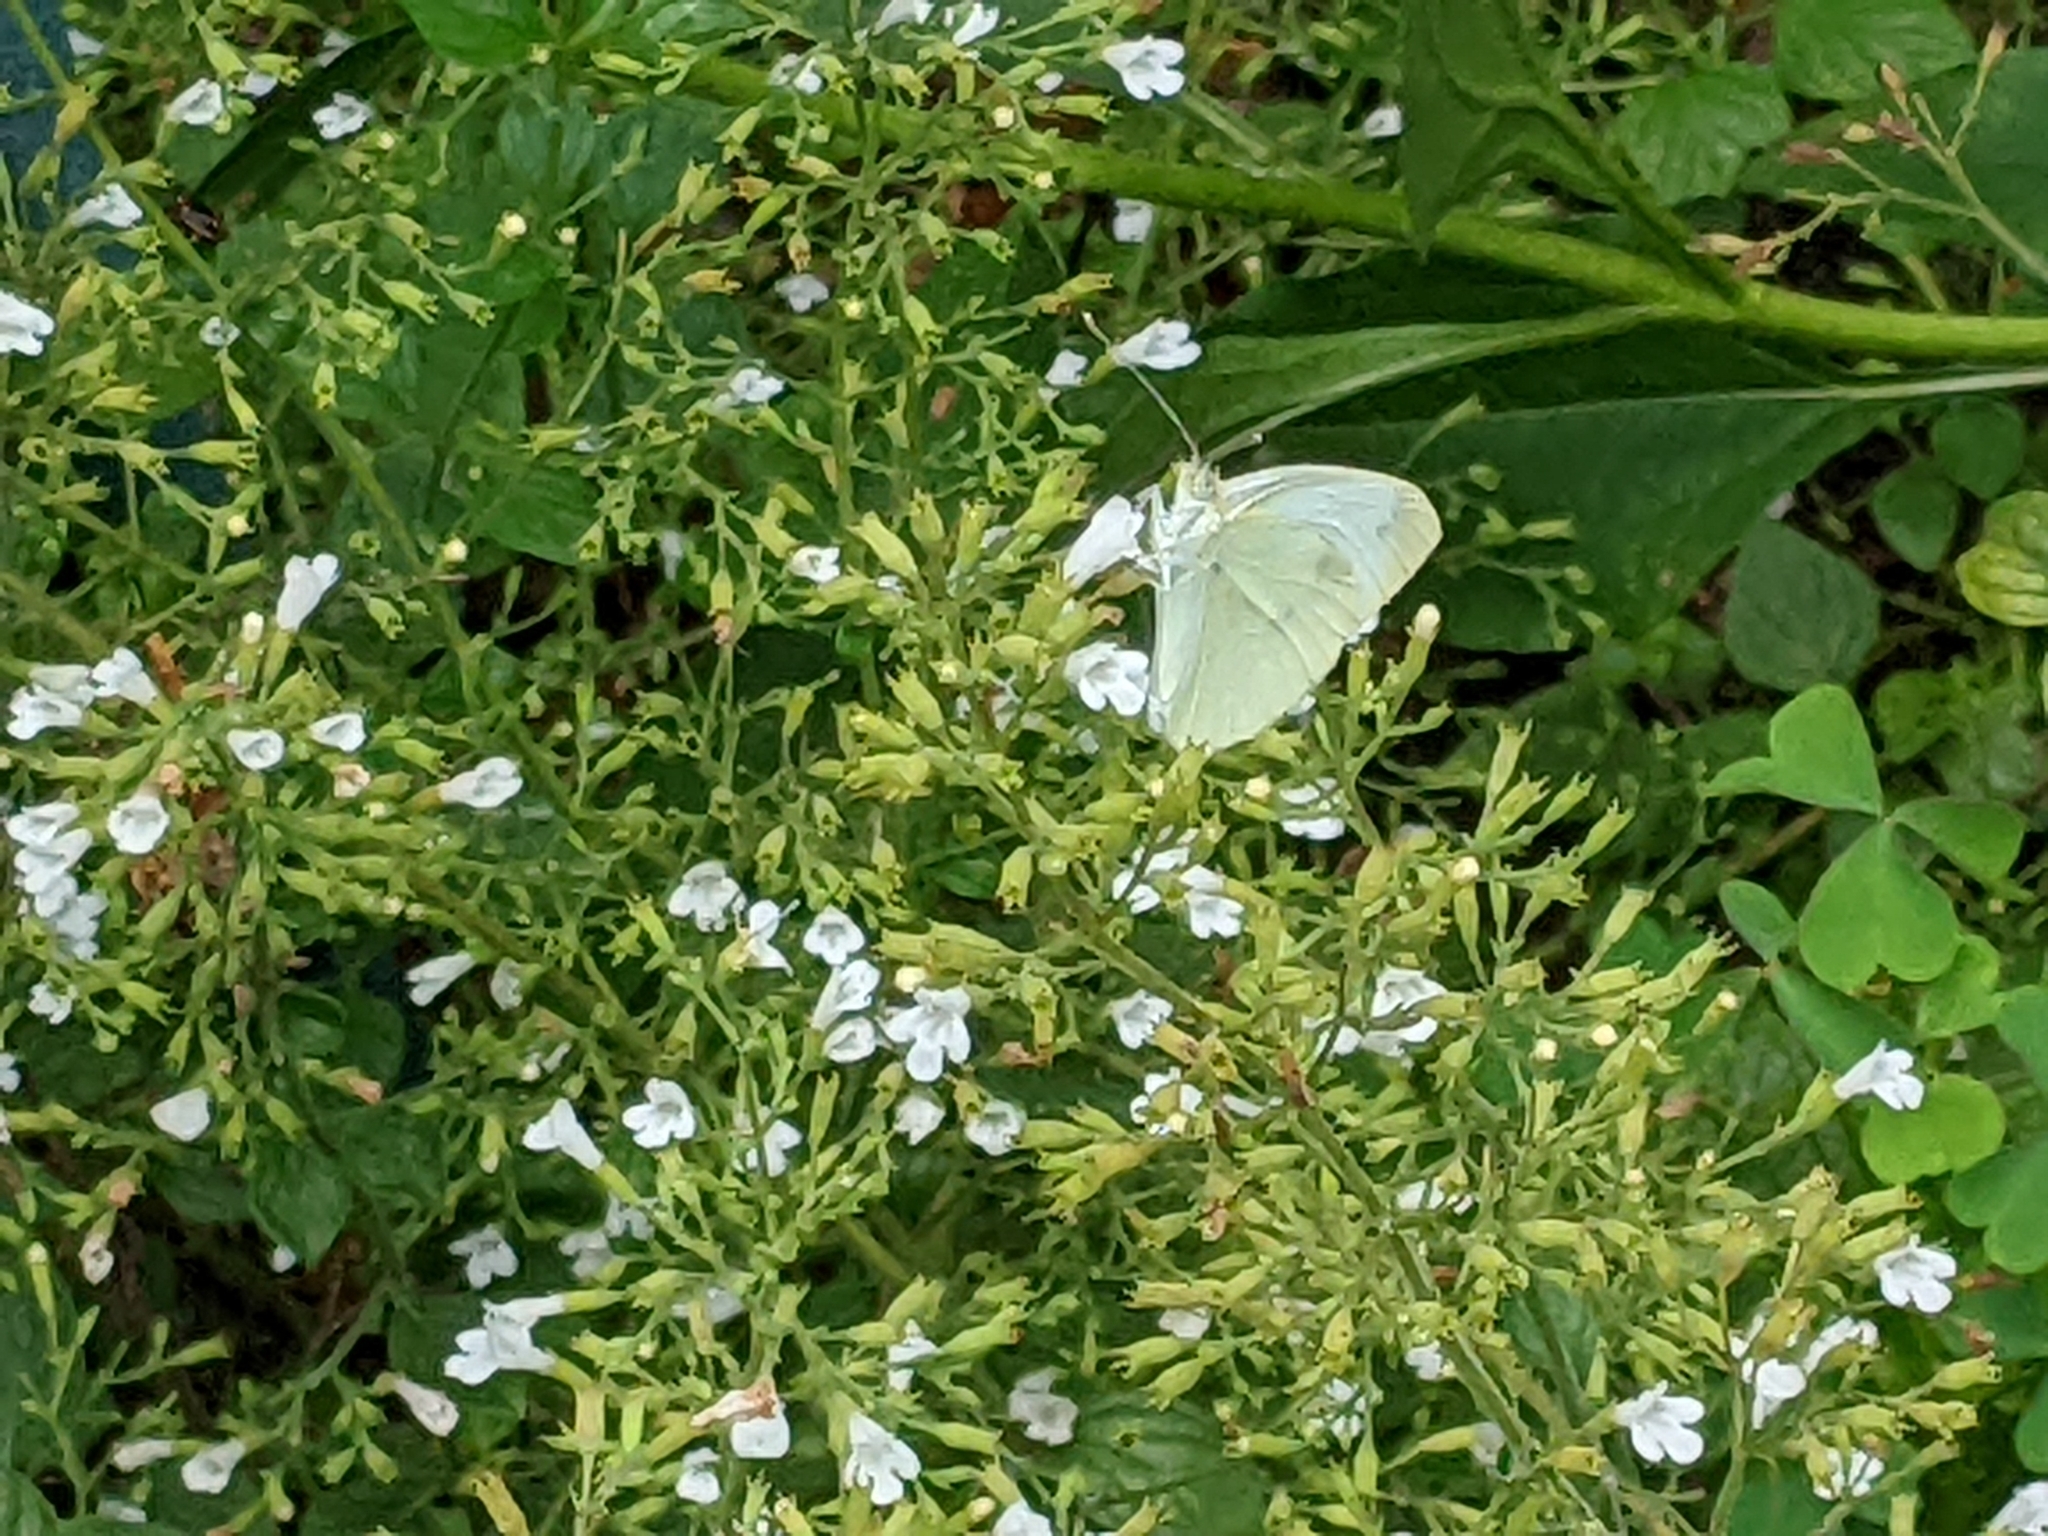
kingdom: Animalia
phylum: Arthropoda
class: Insecta
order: Lepidoptera
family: Pieridae
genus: Pieris
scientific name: Pieris rapae
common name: Small white
